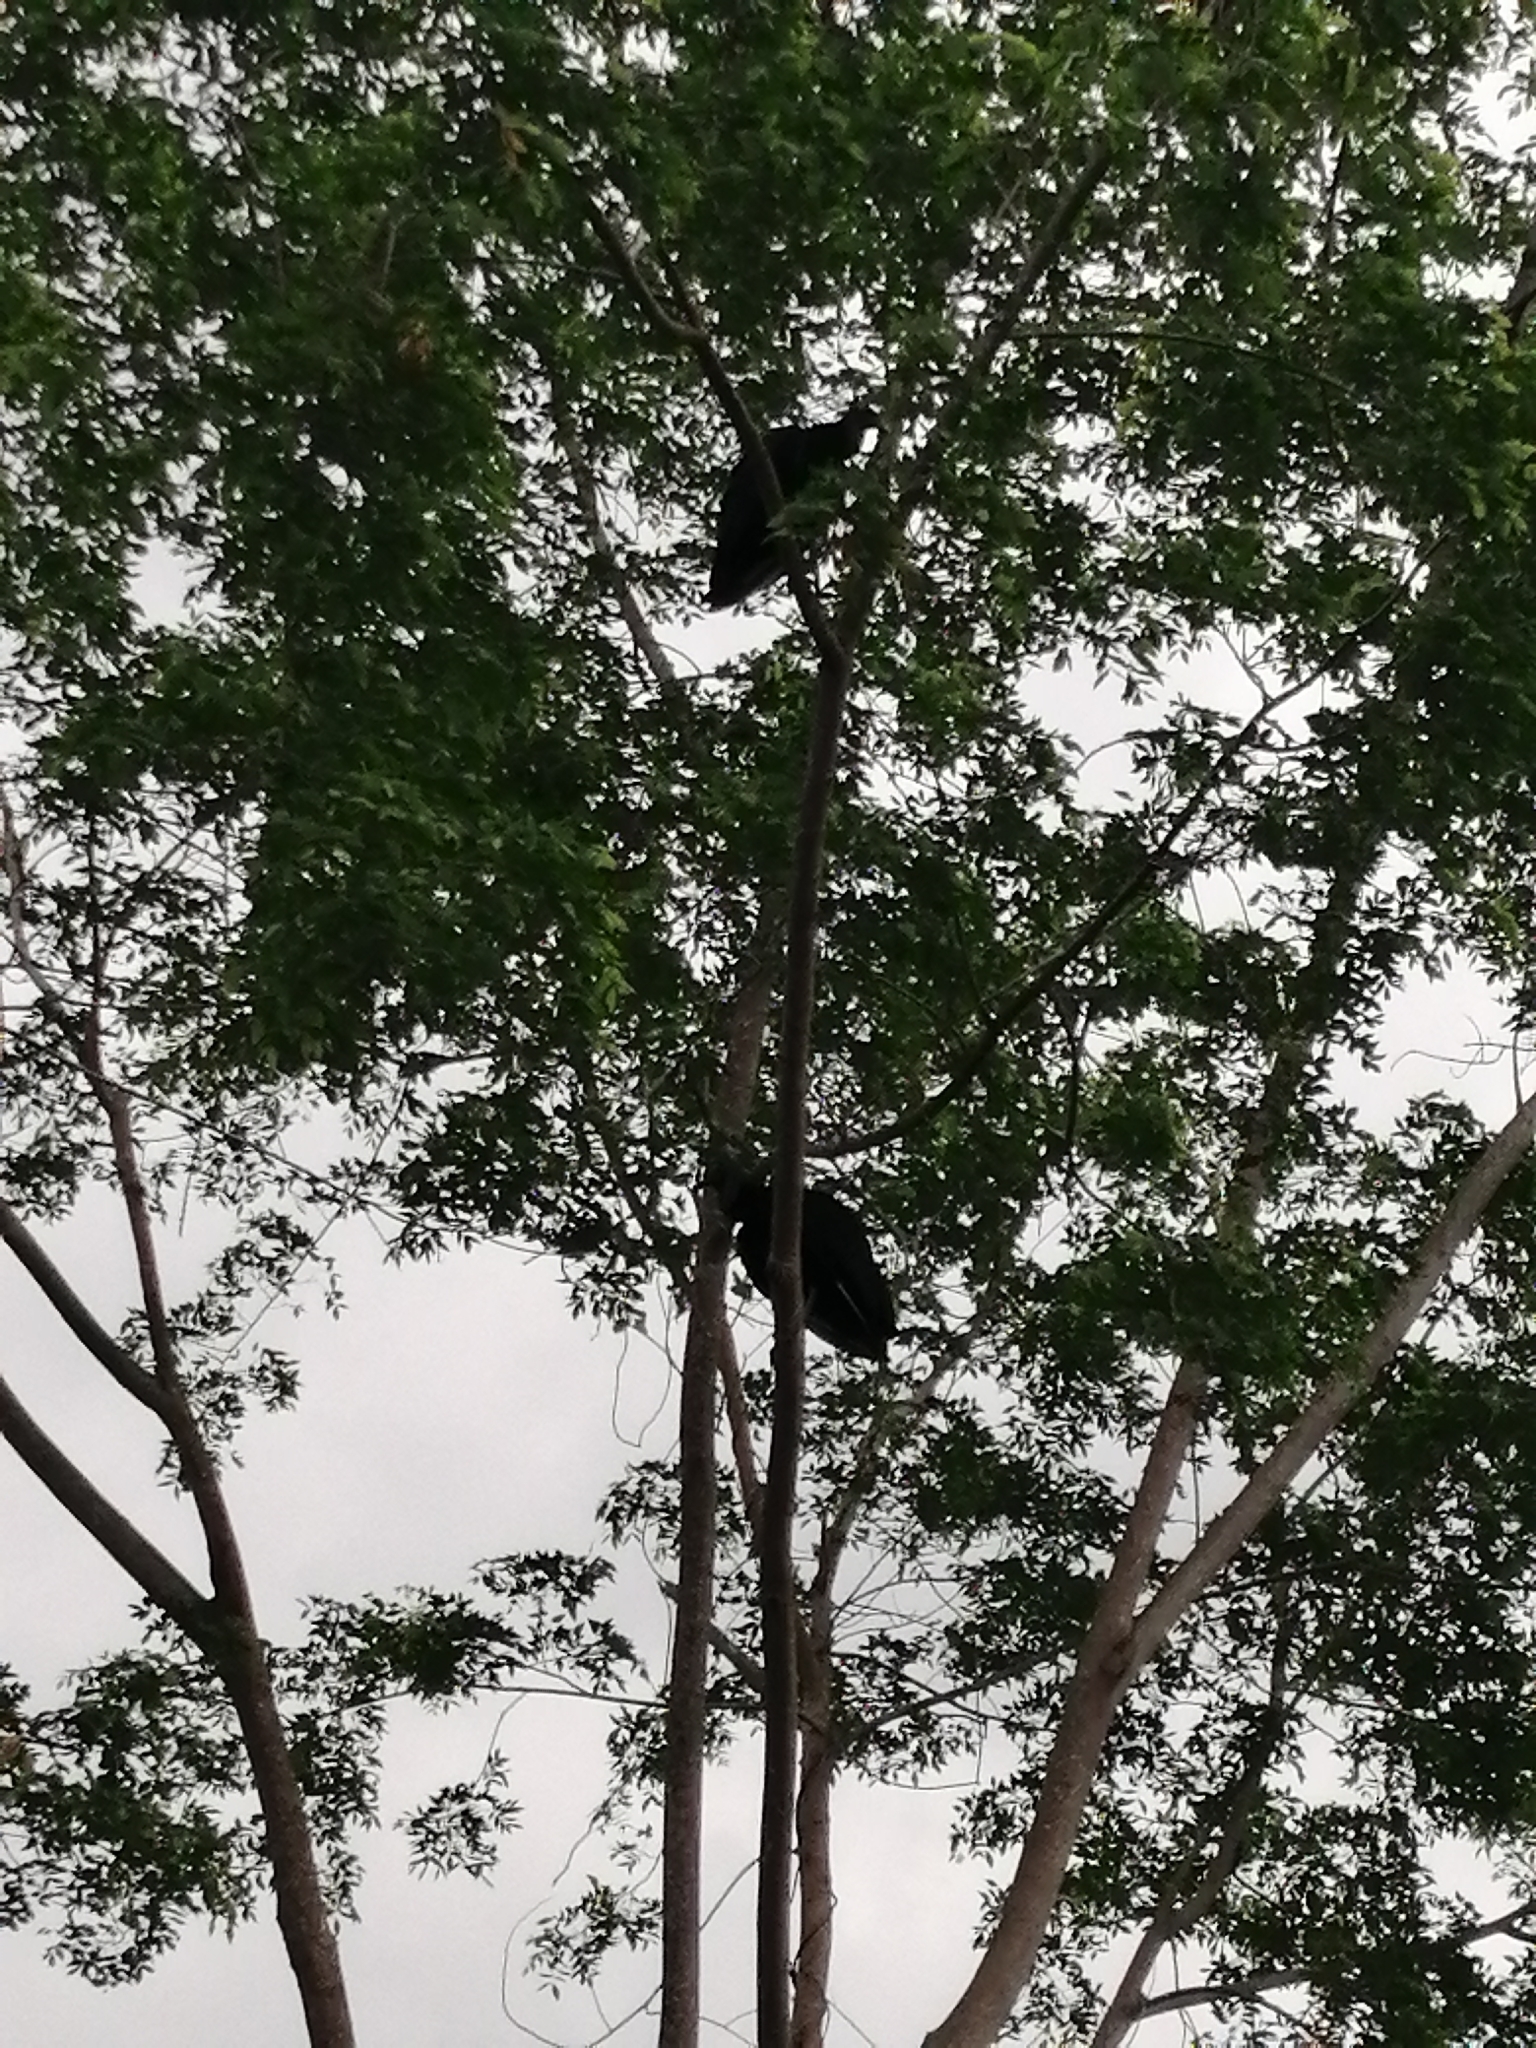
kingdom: Animalia
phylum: Chordata
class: Aves
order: Accipitriformes
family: Cathartidae
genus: Coragyps
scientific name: Coragyps atratus
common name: Black vulture
